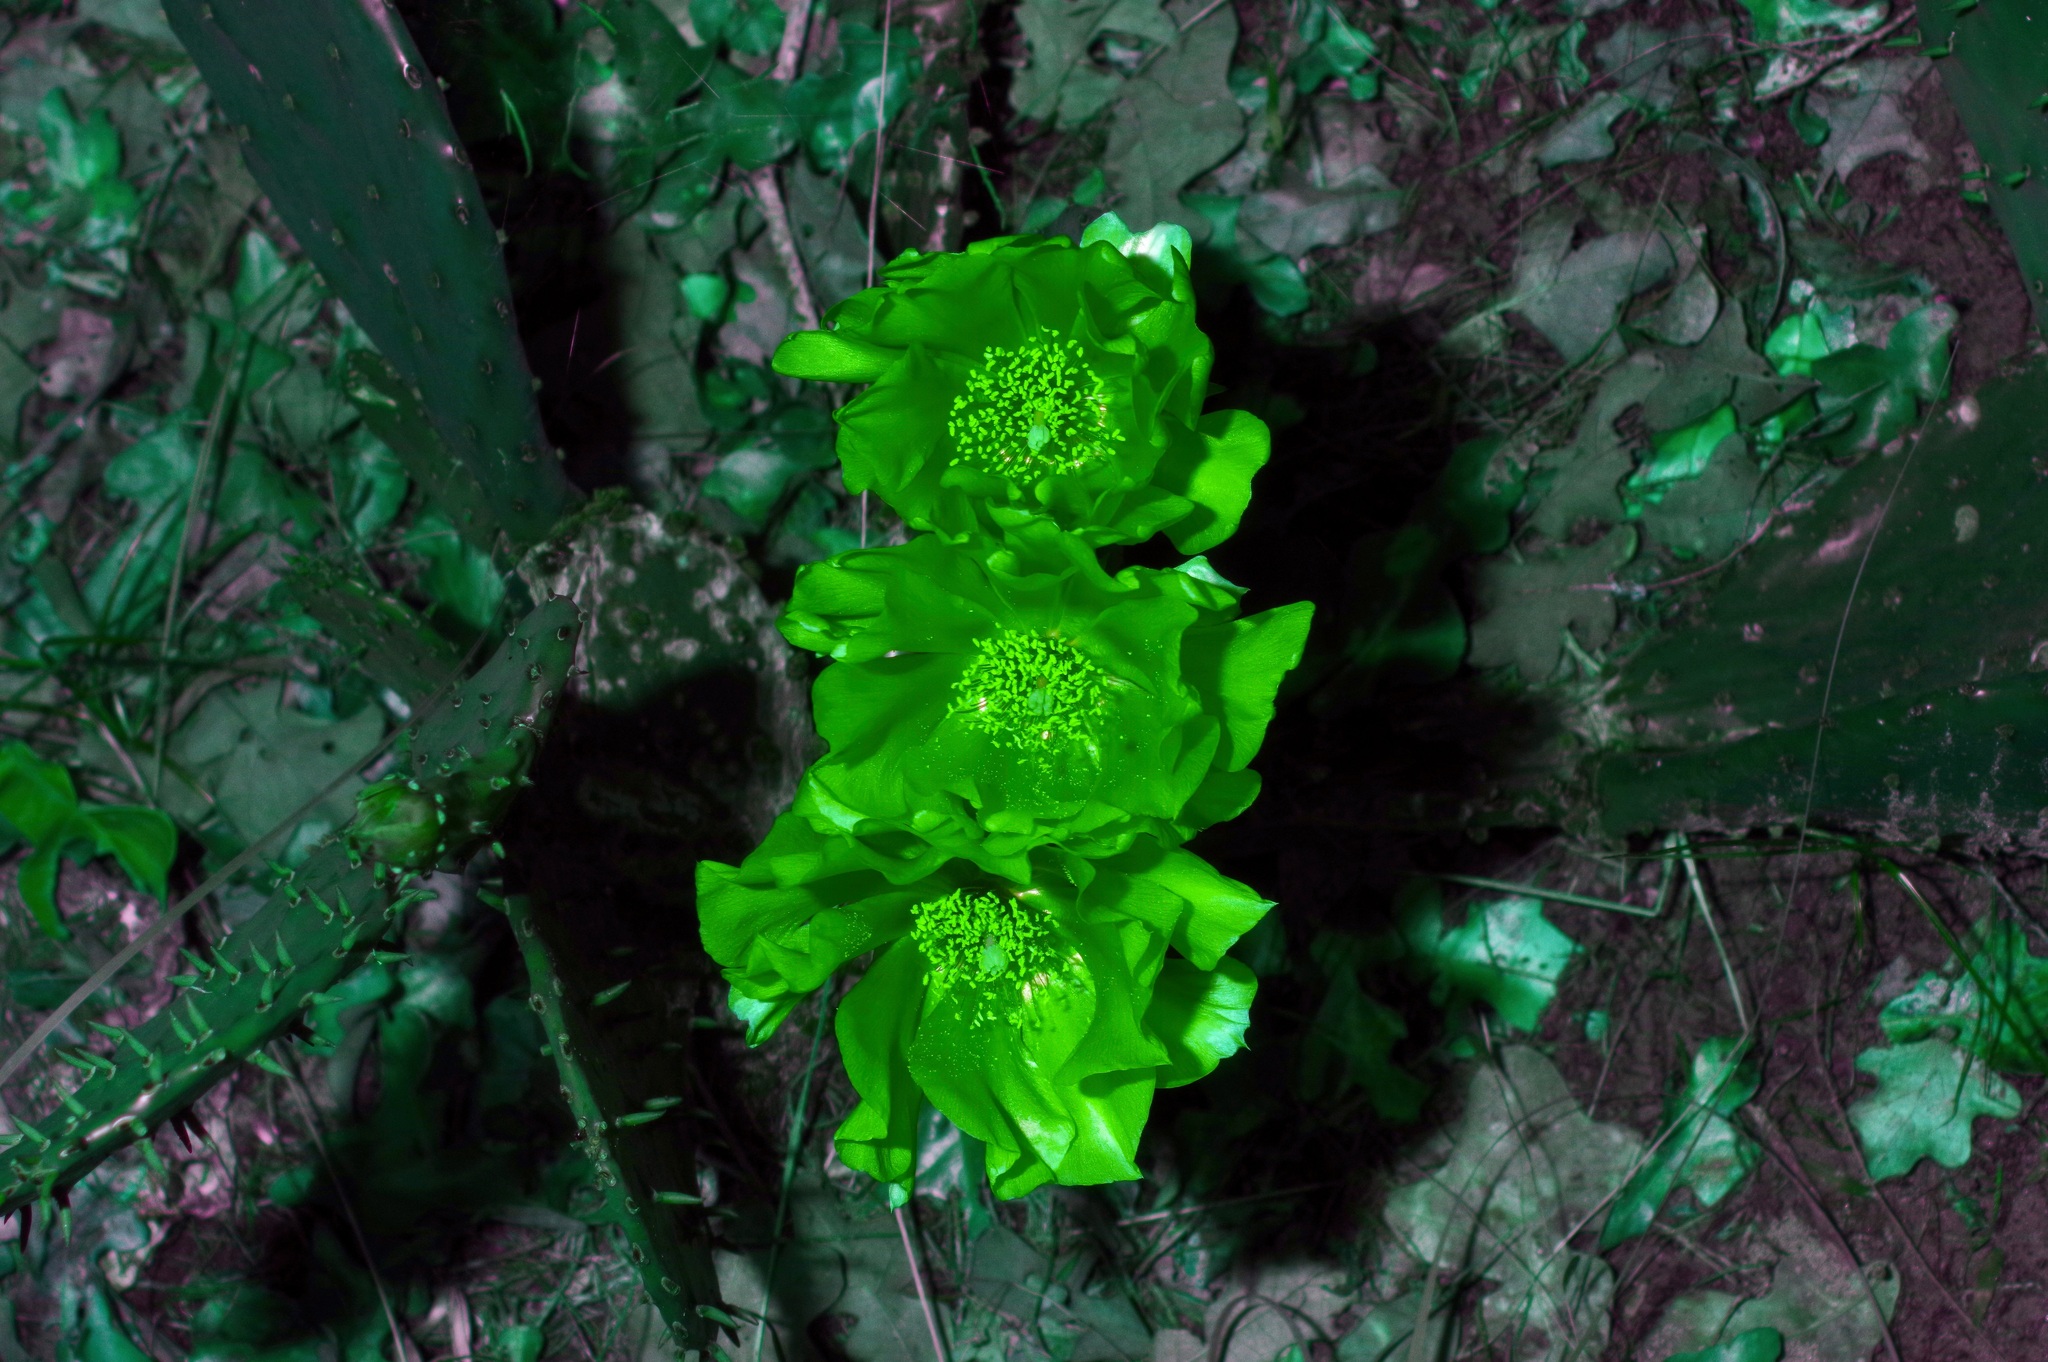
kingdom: Plantae
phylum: Tracheophyta
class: Magnoliopsida
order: Caryophyllales
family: Cactaceae
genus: Opuntia
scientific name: Opuntia humifusa
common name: Eastern prickly-pear
